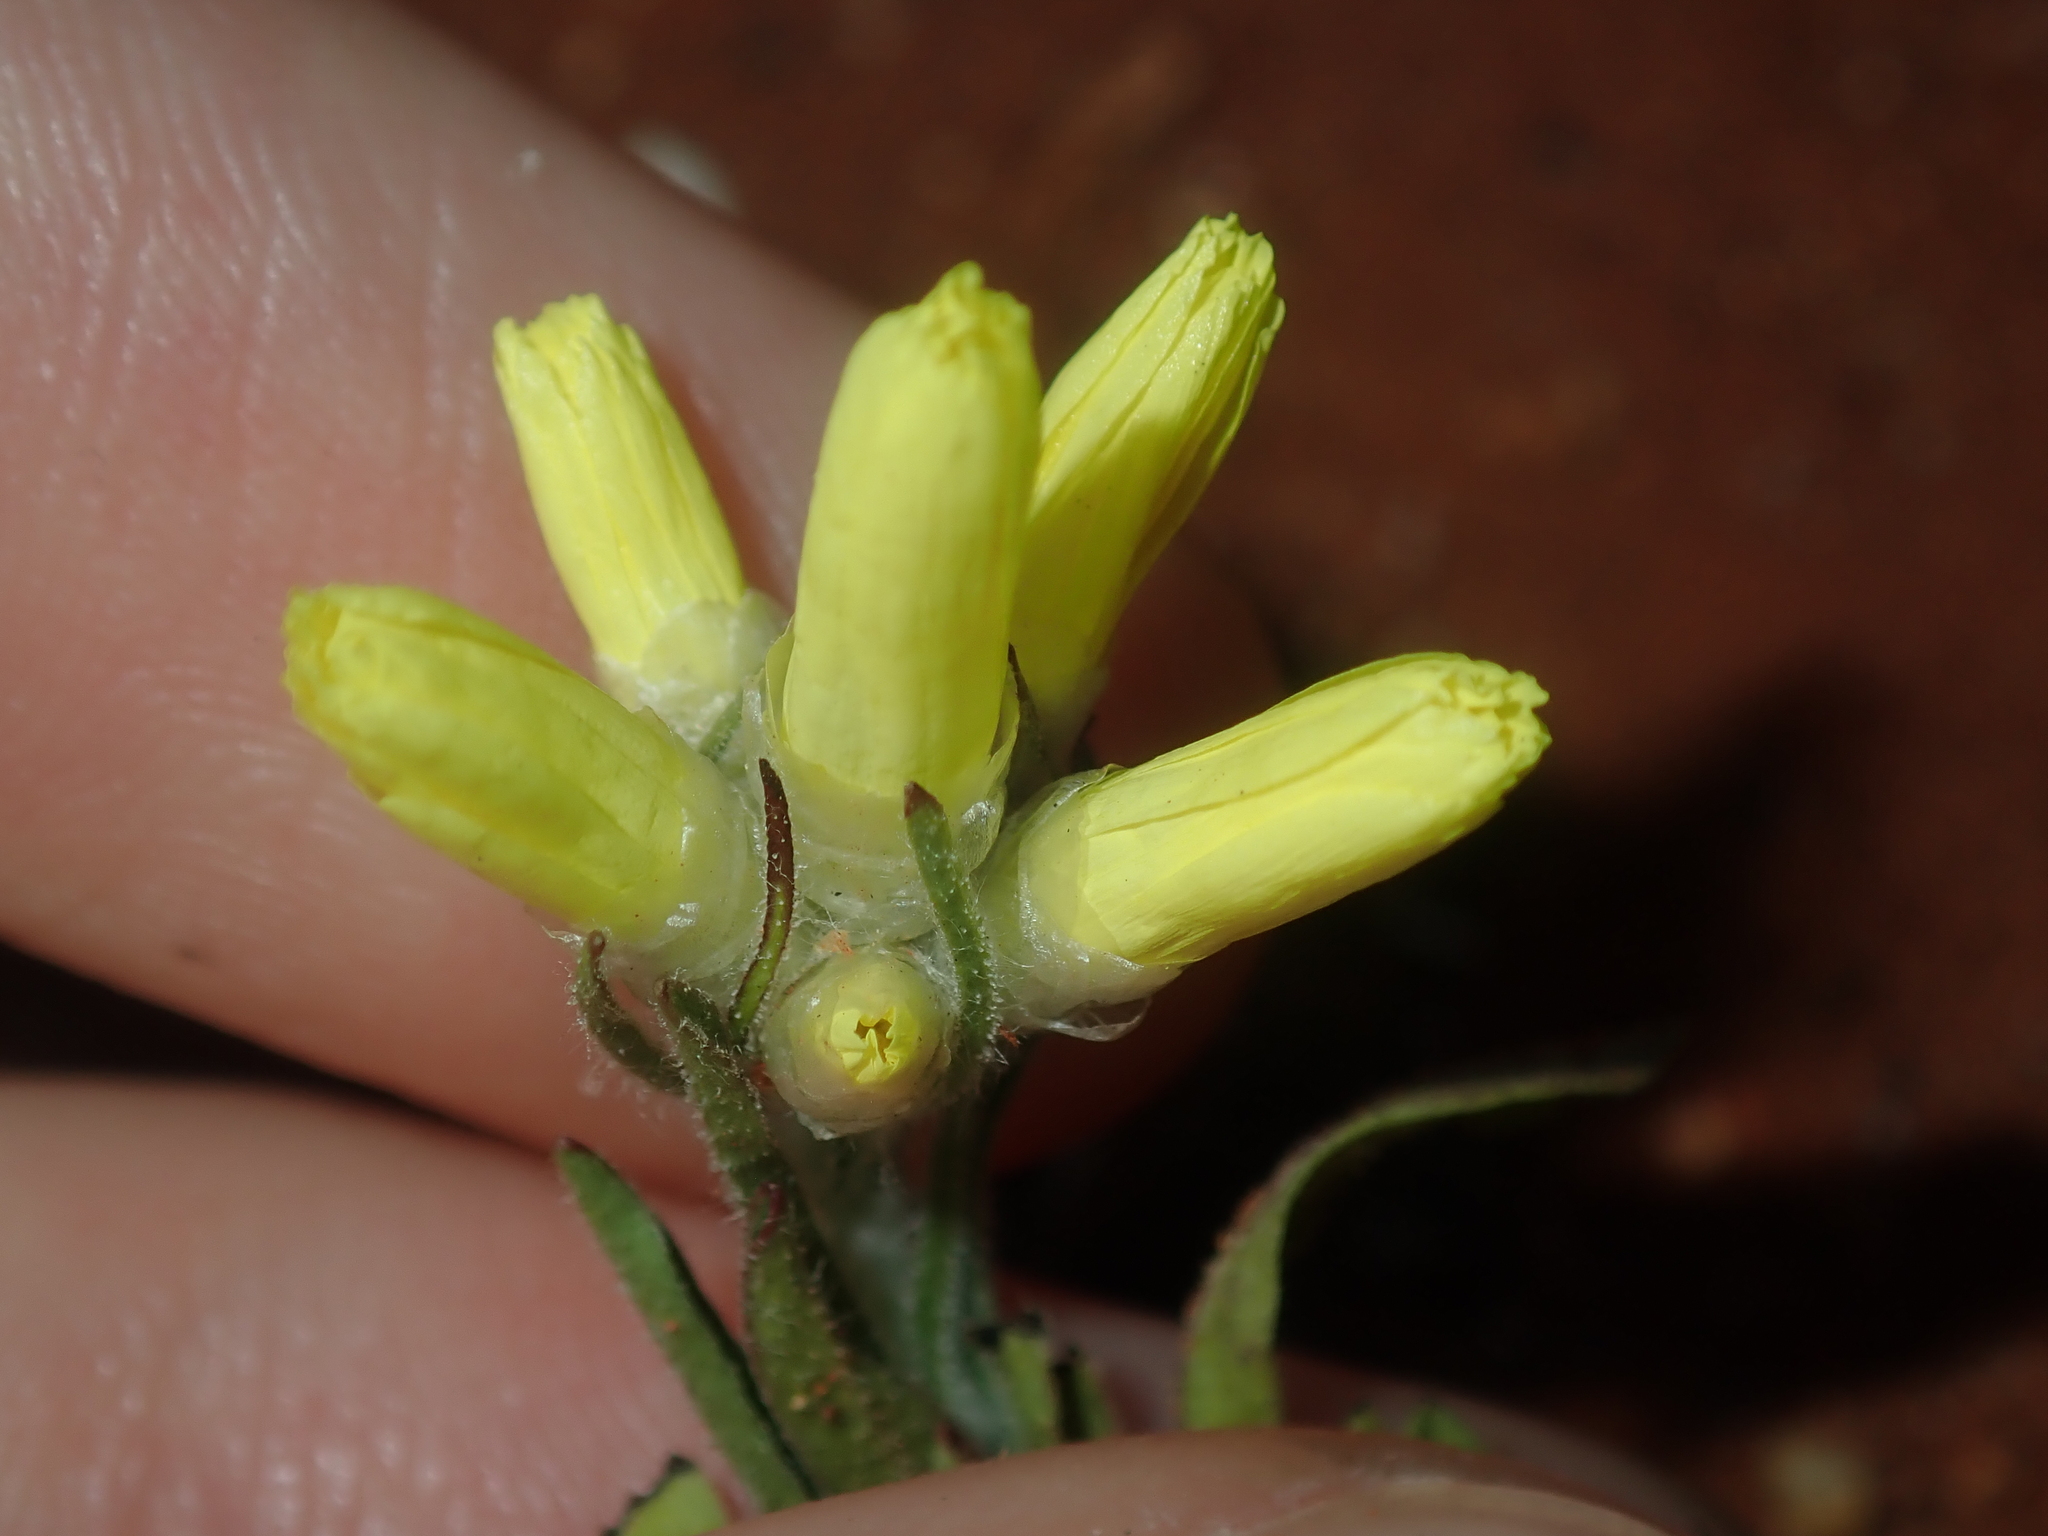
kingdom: Plantae
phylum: Tracheophyta
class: Magnoliopsida
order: Asterales
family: Asteraceae
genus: Cephalipterum
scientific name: Cephalipterum drummondii
